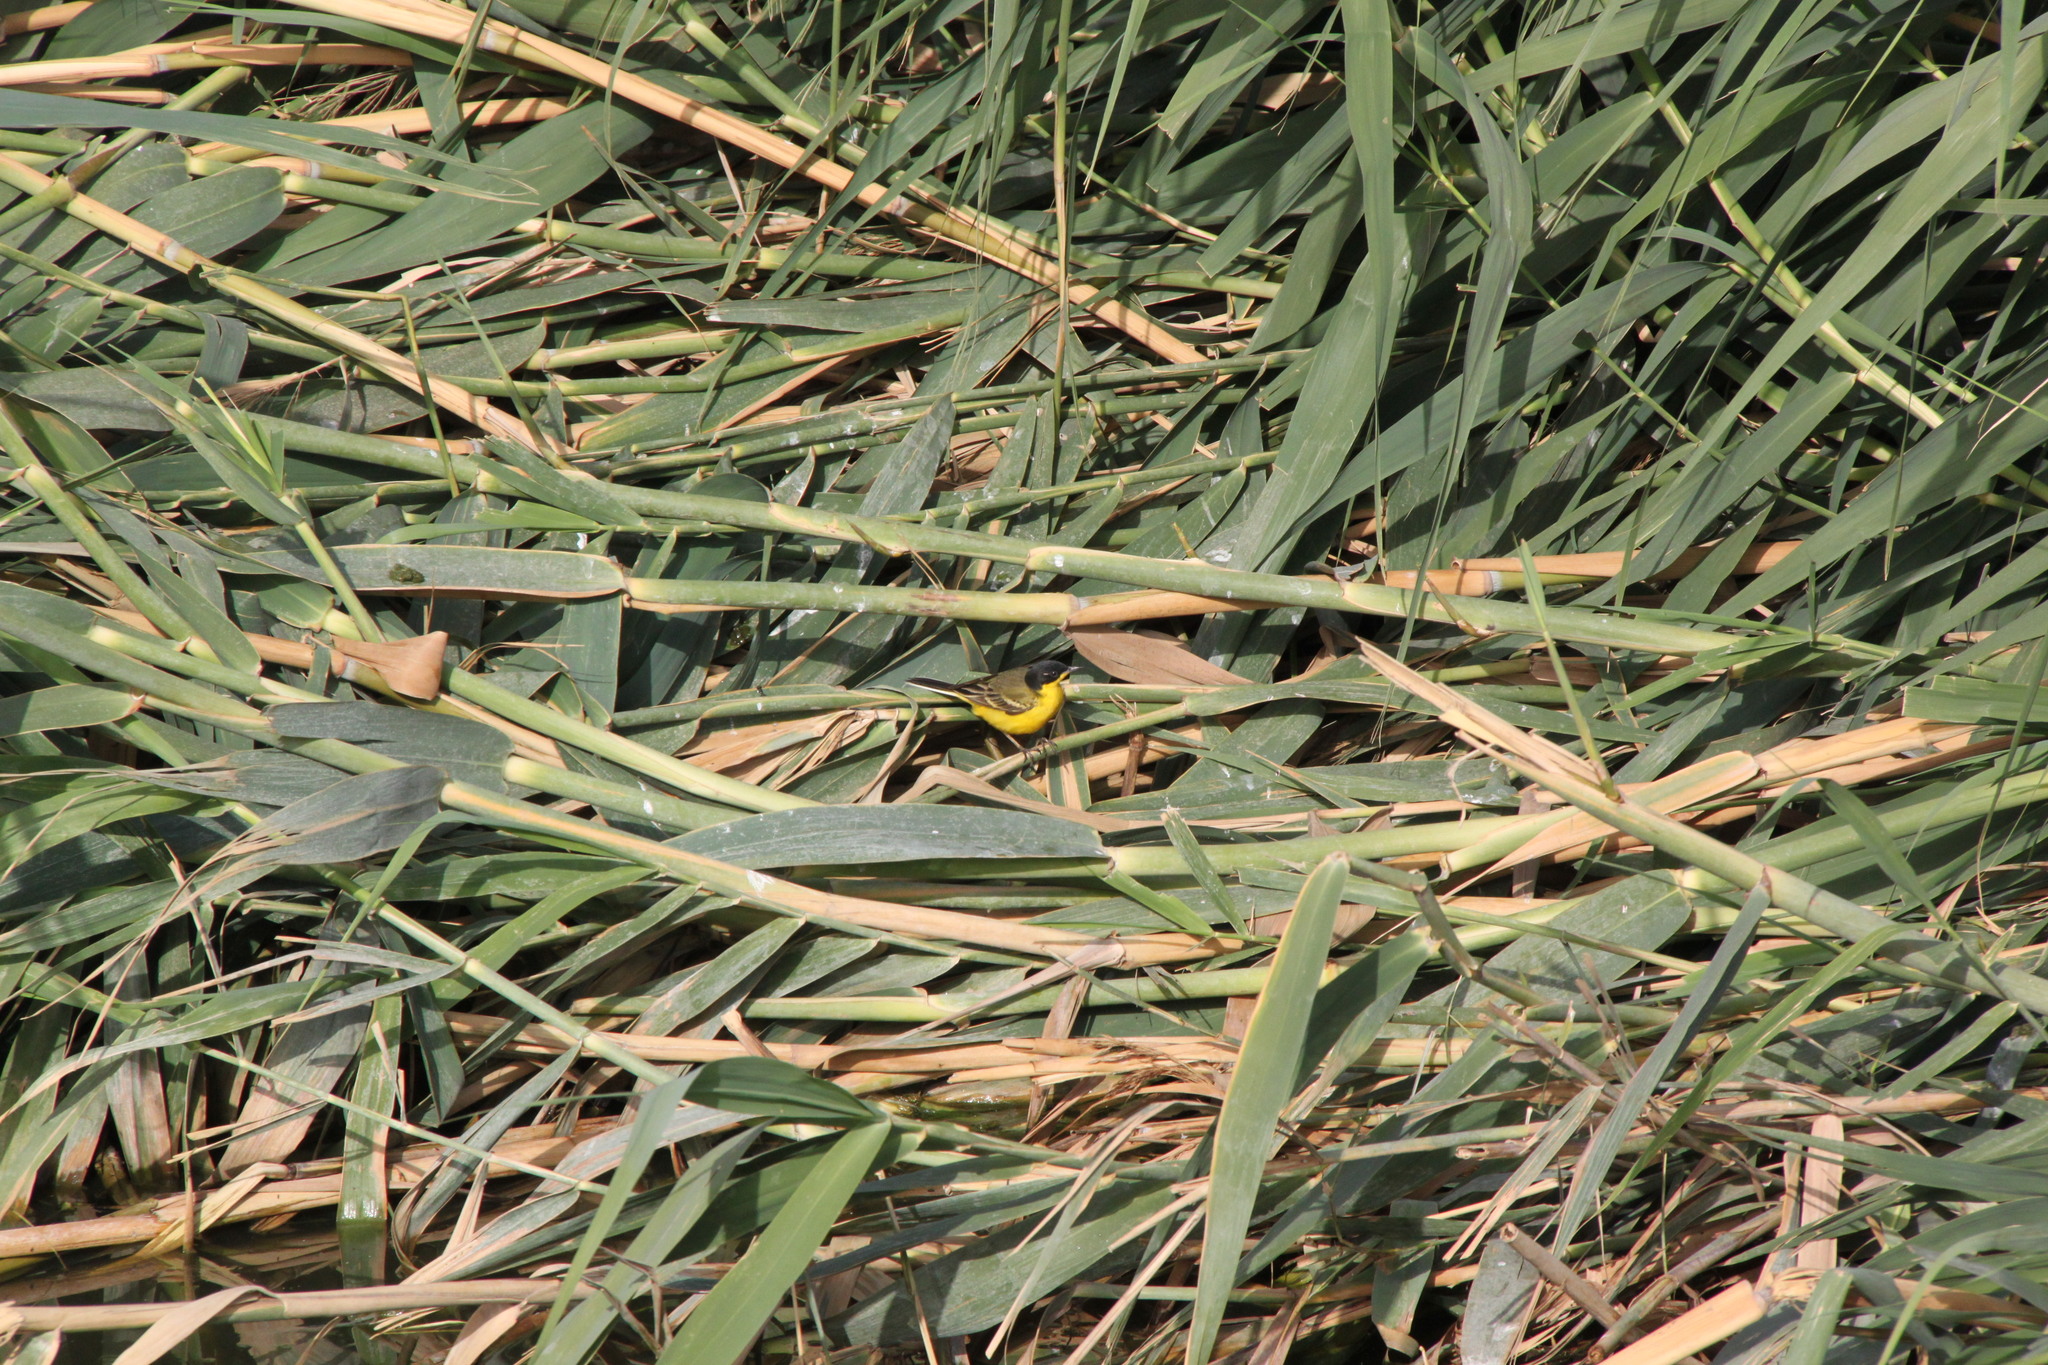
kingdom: Animalia
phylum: Chordata
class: Aves
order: Passeriformes
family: Motacillidae
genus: Motacilla
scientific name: Motacilla flava
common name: Western yellow wagtail
